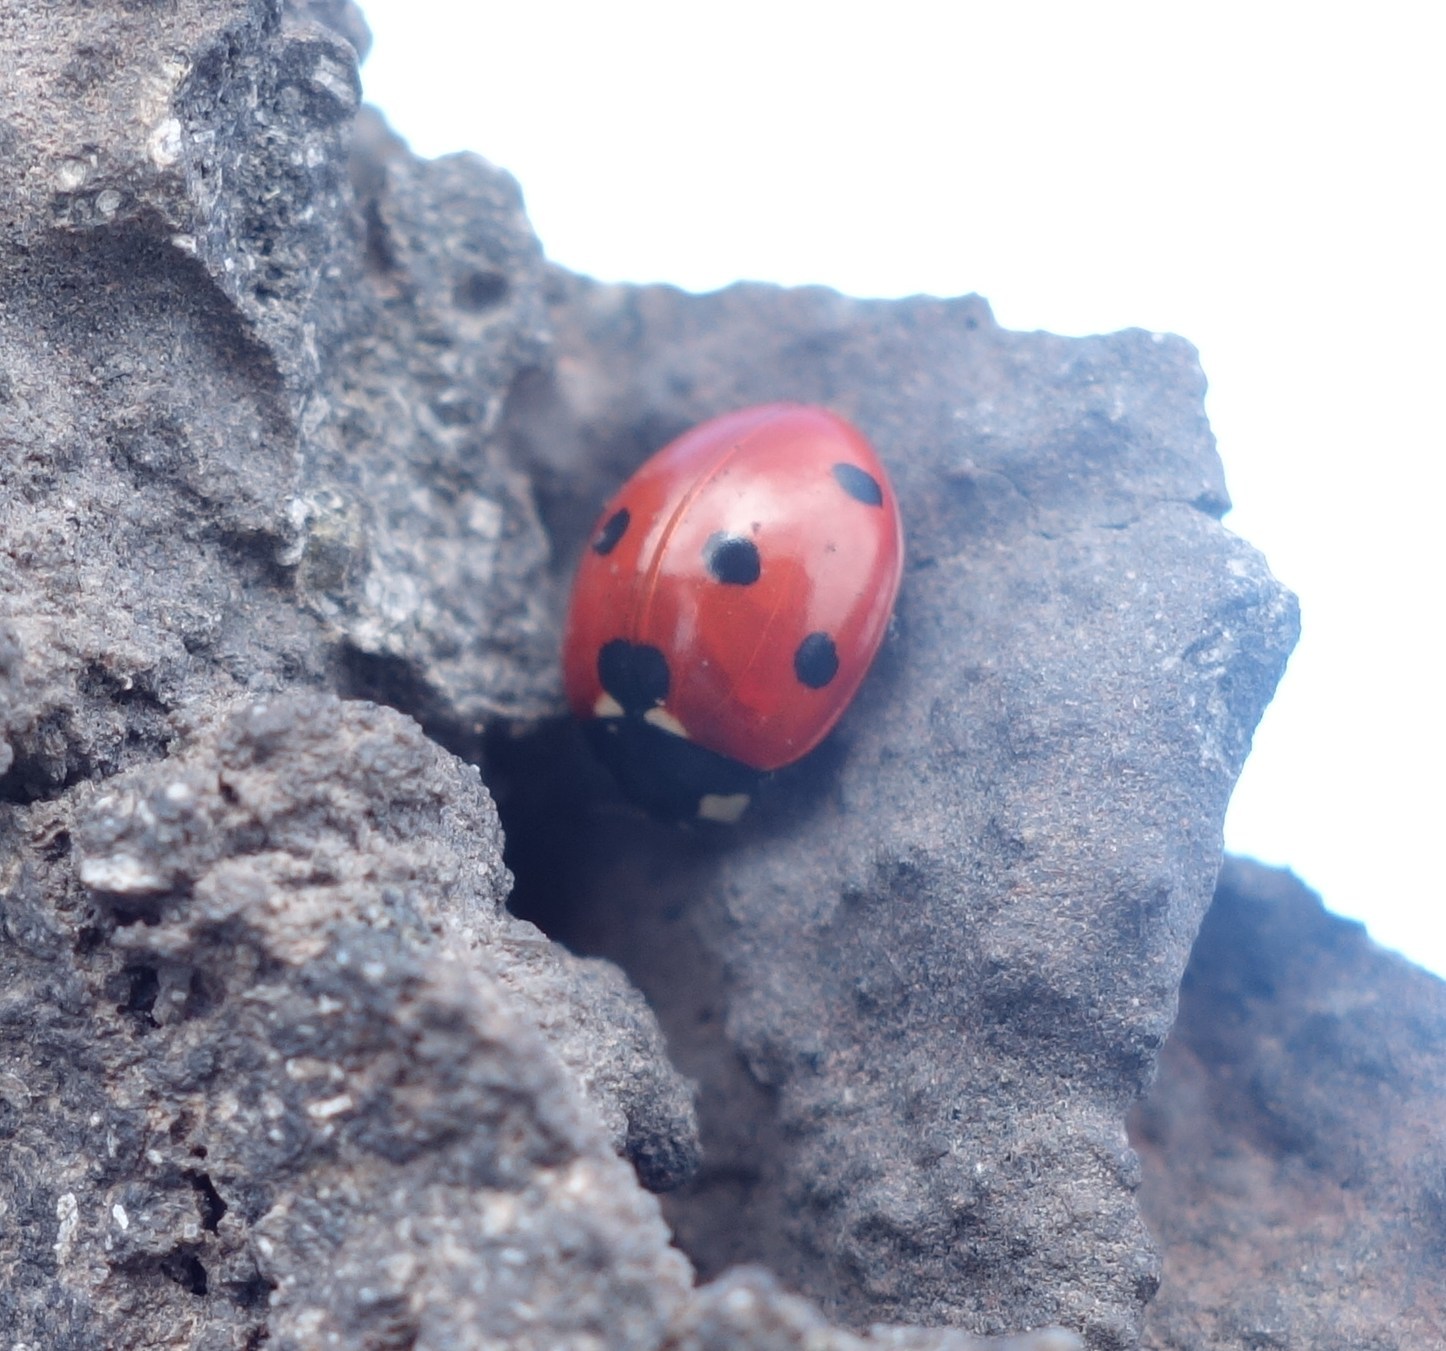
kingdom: Animalia
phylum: Arthropoda
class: Insecta
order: Coleoptera
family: Coccinellidae
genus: Coccinella
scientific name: Coccinella septempunctata
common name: Sevenspotted lady beetle
